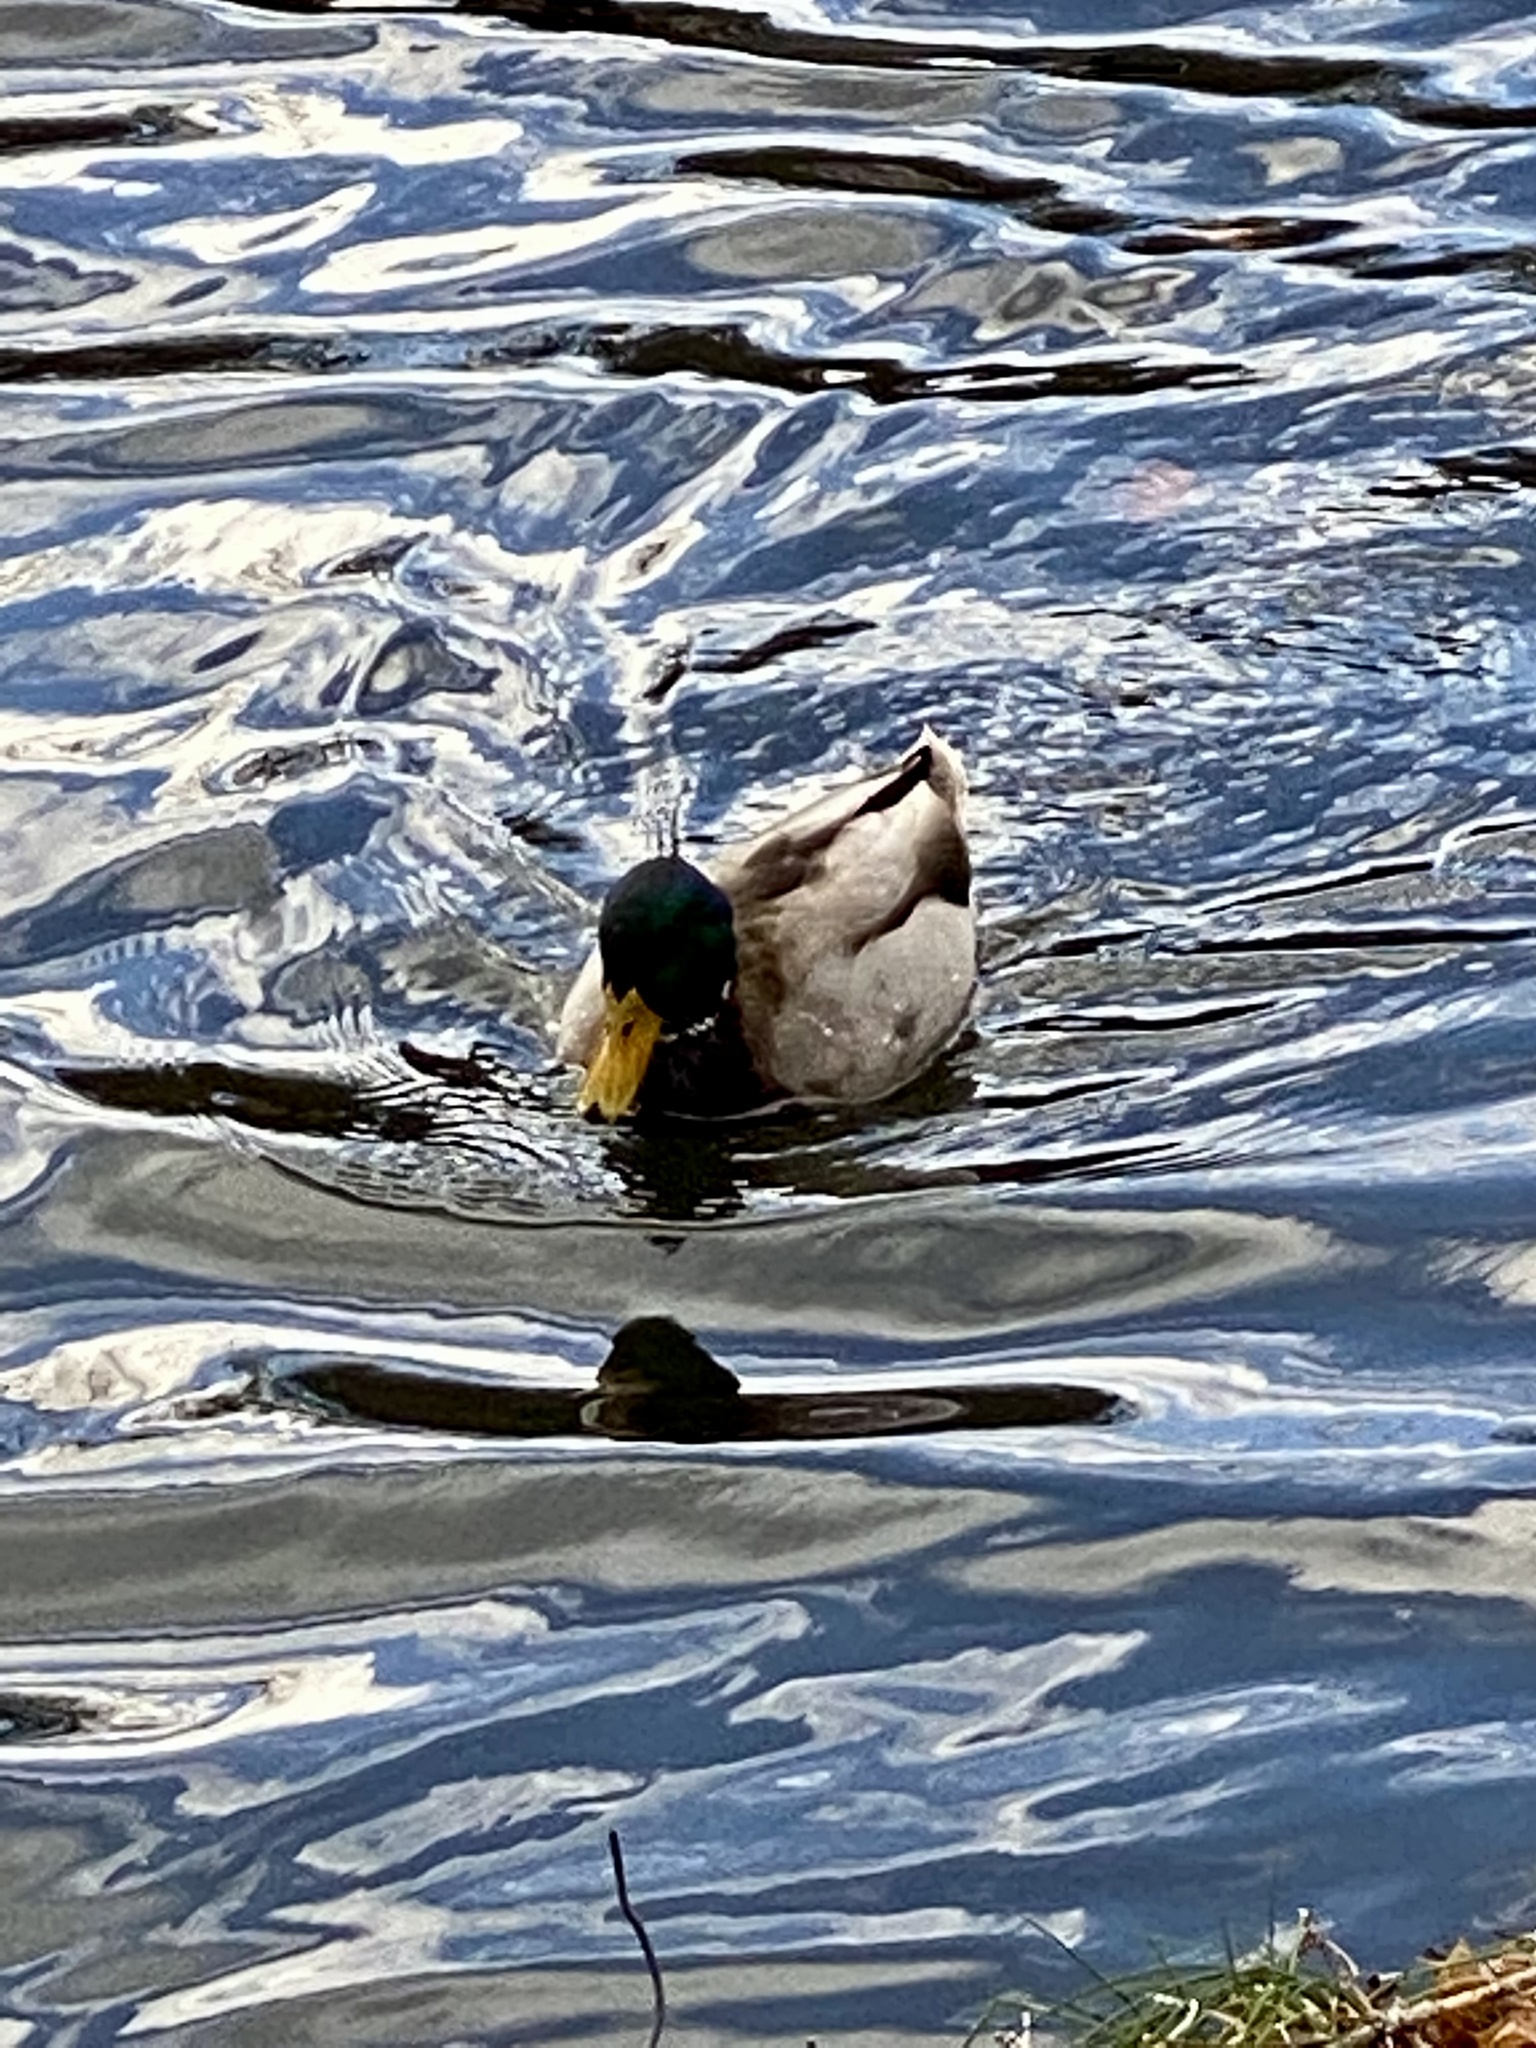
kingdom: Animalia
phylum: Chordata
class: Aves
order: Anseriformes
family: Anatidae
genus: Anas
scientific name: Anas platyrhynchos
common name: Mallard
